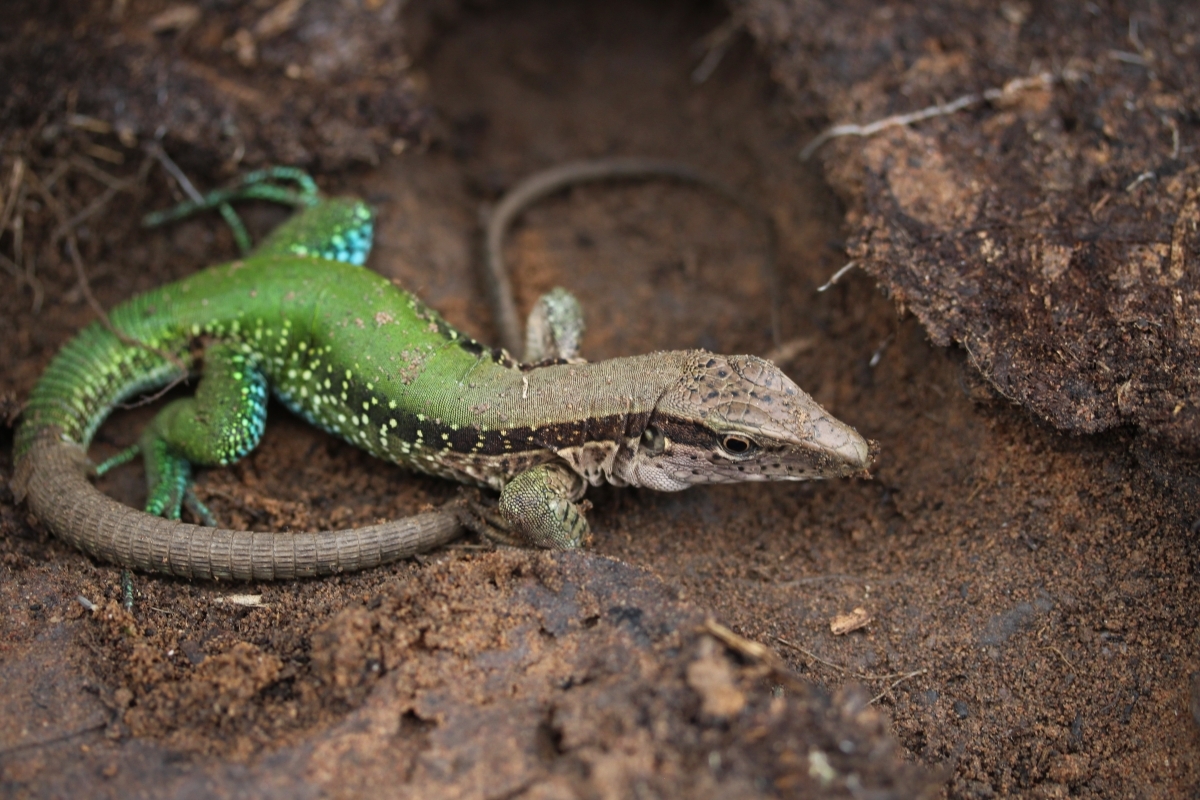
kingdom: Animalia
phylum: Chordata
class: Squamata
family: Teiidae
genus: Ameiva
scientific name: Ameiva ameiva
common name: Giant ameiva
